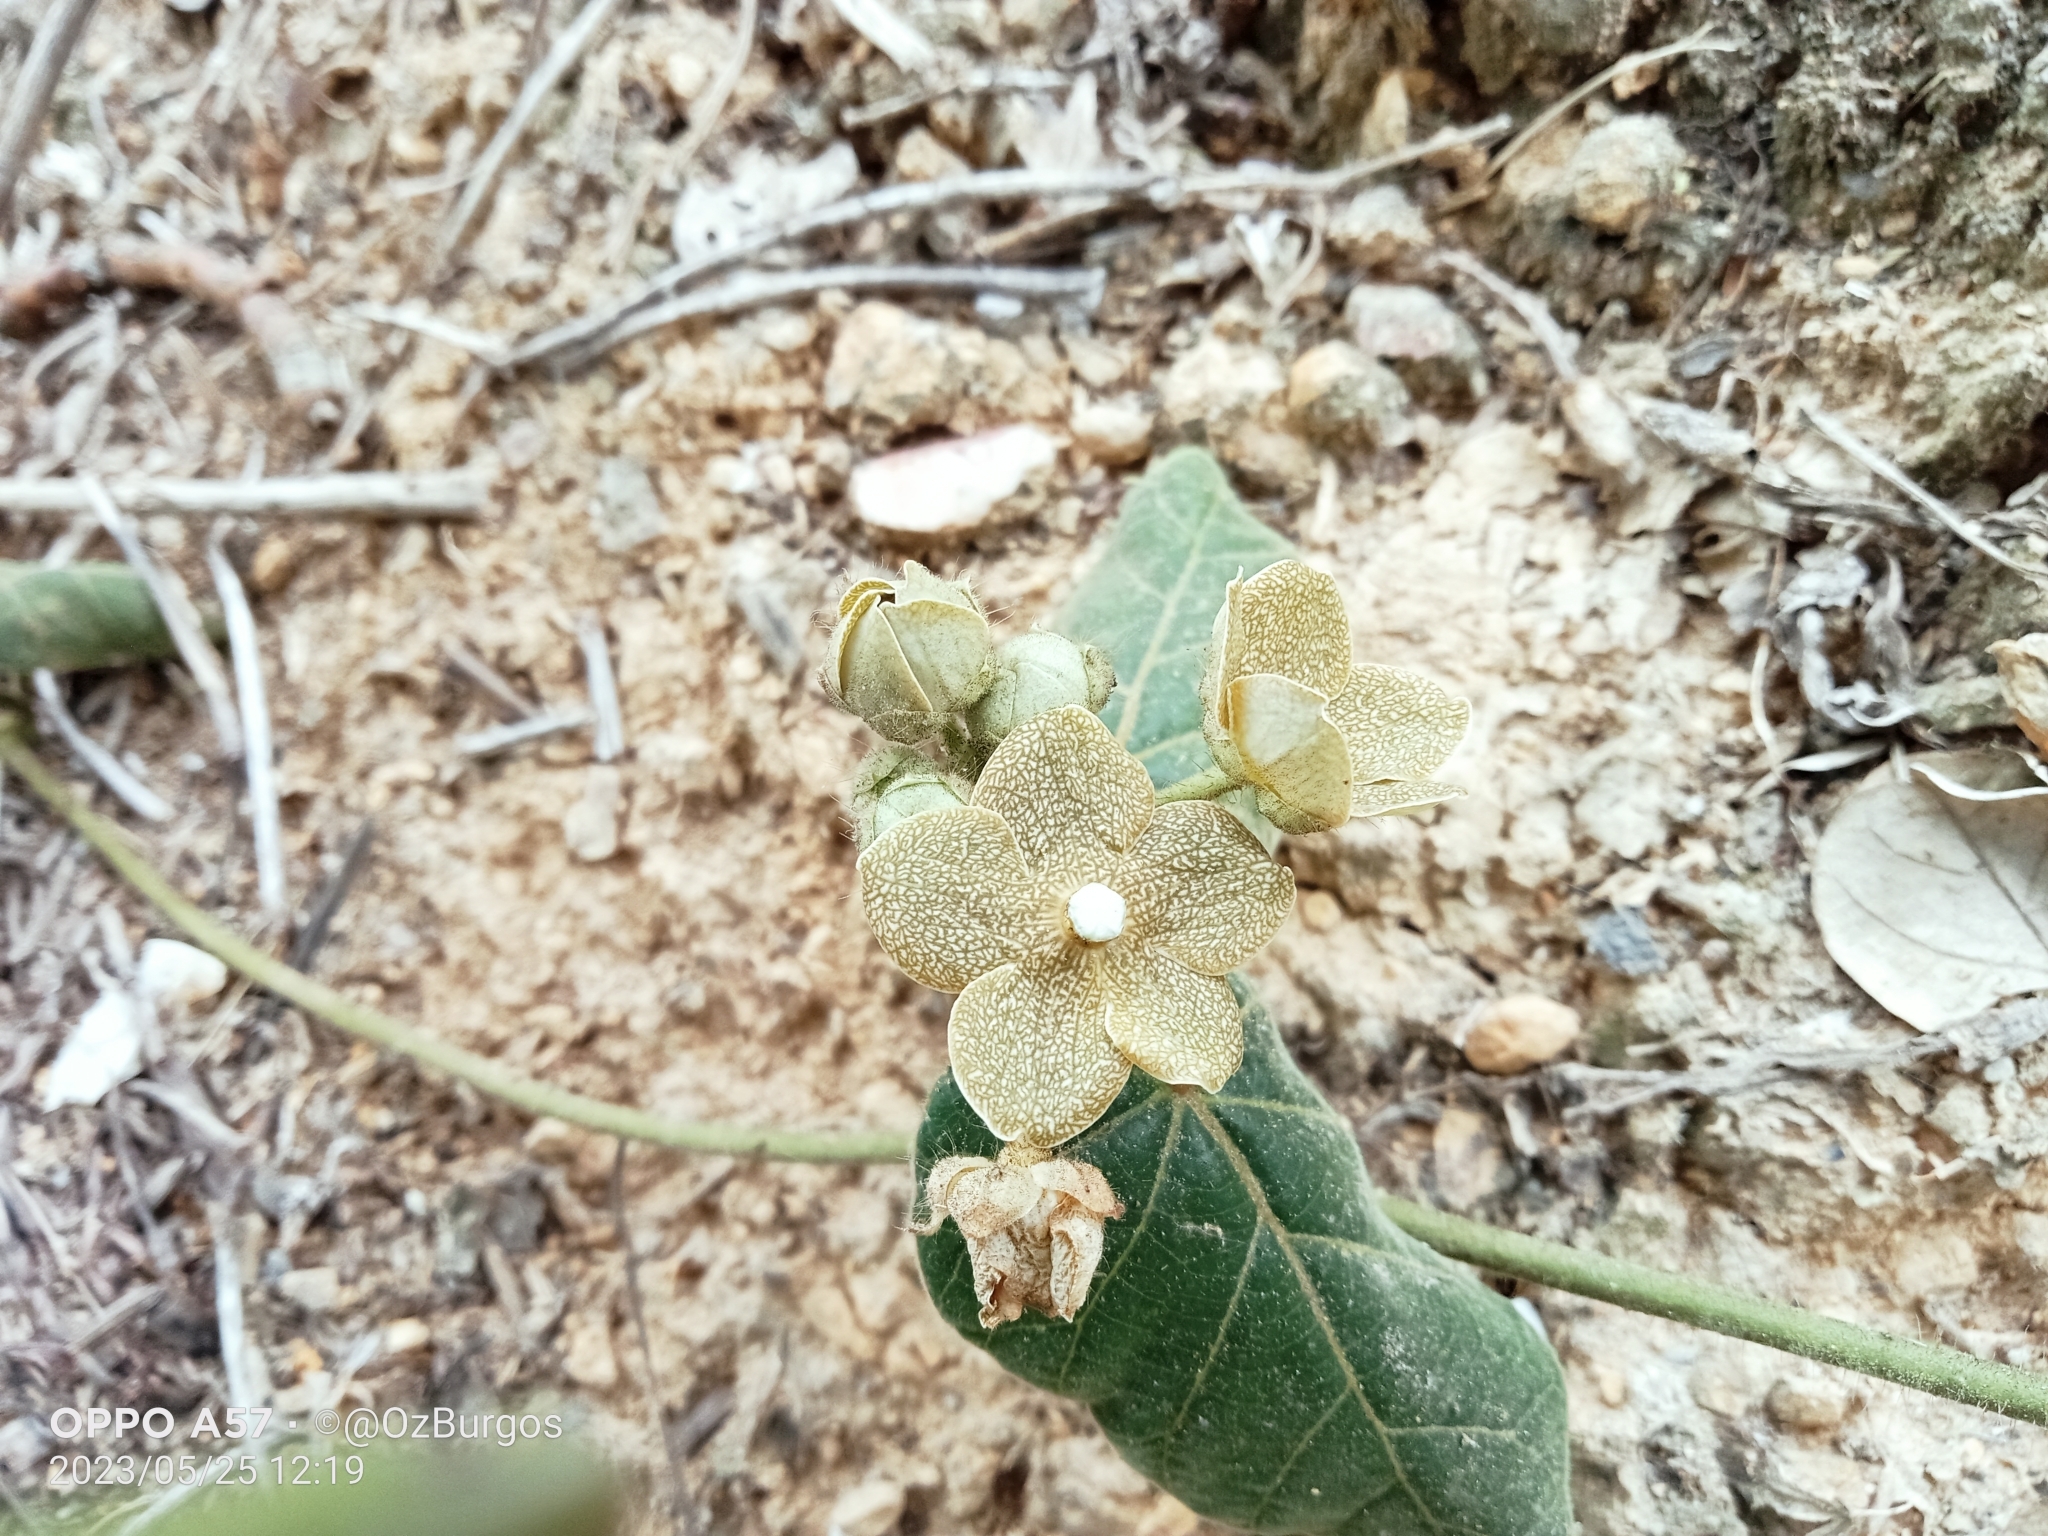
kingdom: Plantae
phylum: Tracheophyta
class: Magnoliopsida
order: Gentianales
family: Apocynaceae
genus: Matelea
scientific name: Matelea velutina
